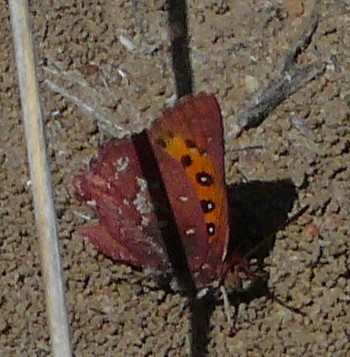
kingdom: Animalia
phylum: Arthropoda
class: Insecta
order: Lepidoptera
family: Lycaenidae
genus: Aloeides
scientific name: Aloeides margaretae
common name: Marguerite's copper
